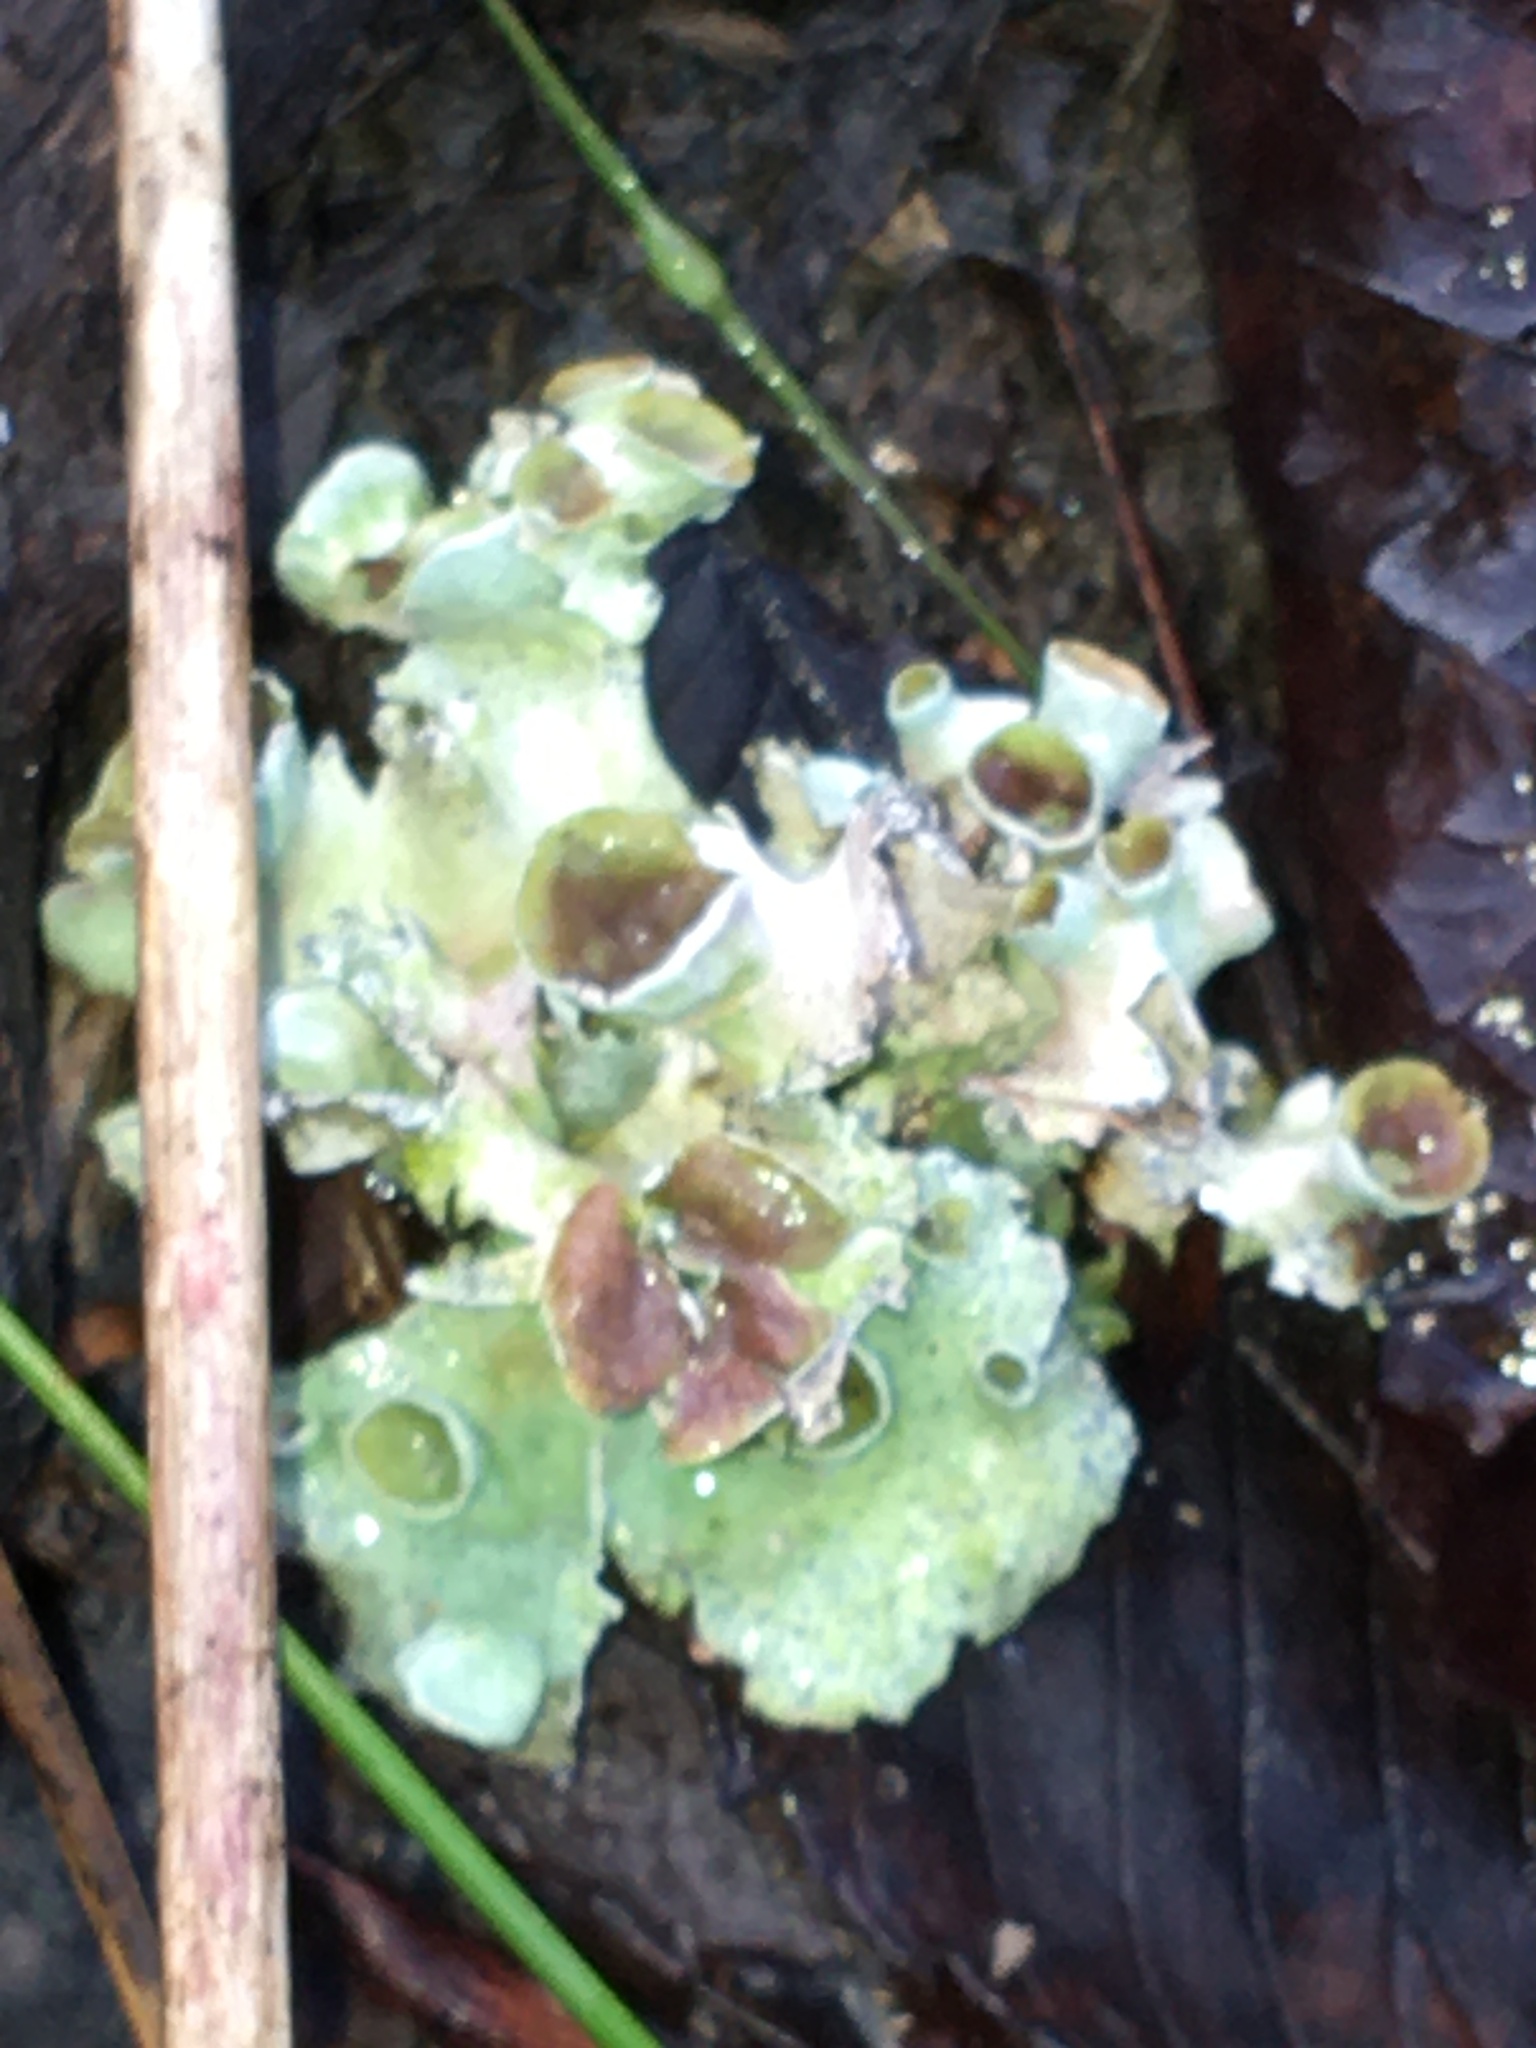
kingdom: Fungi
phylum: Ascomycota
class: Lecanoromycetes
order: Lecanorales
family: Parmeliaceae
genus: Parmotrema
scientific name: Parmotrema perforatum
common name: Perforated ruffle lichen
